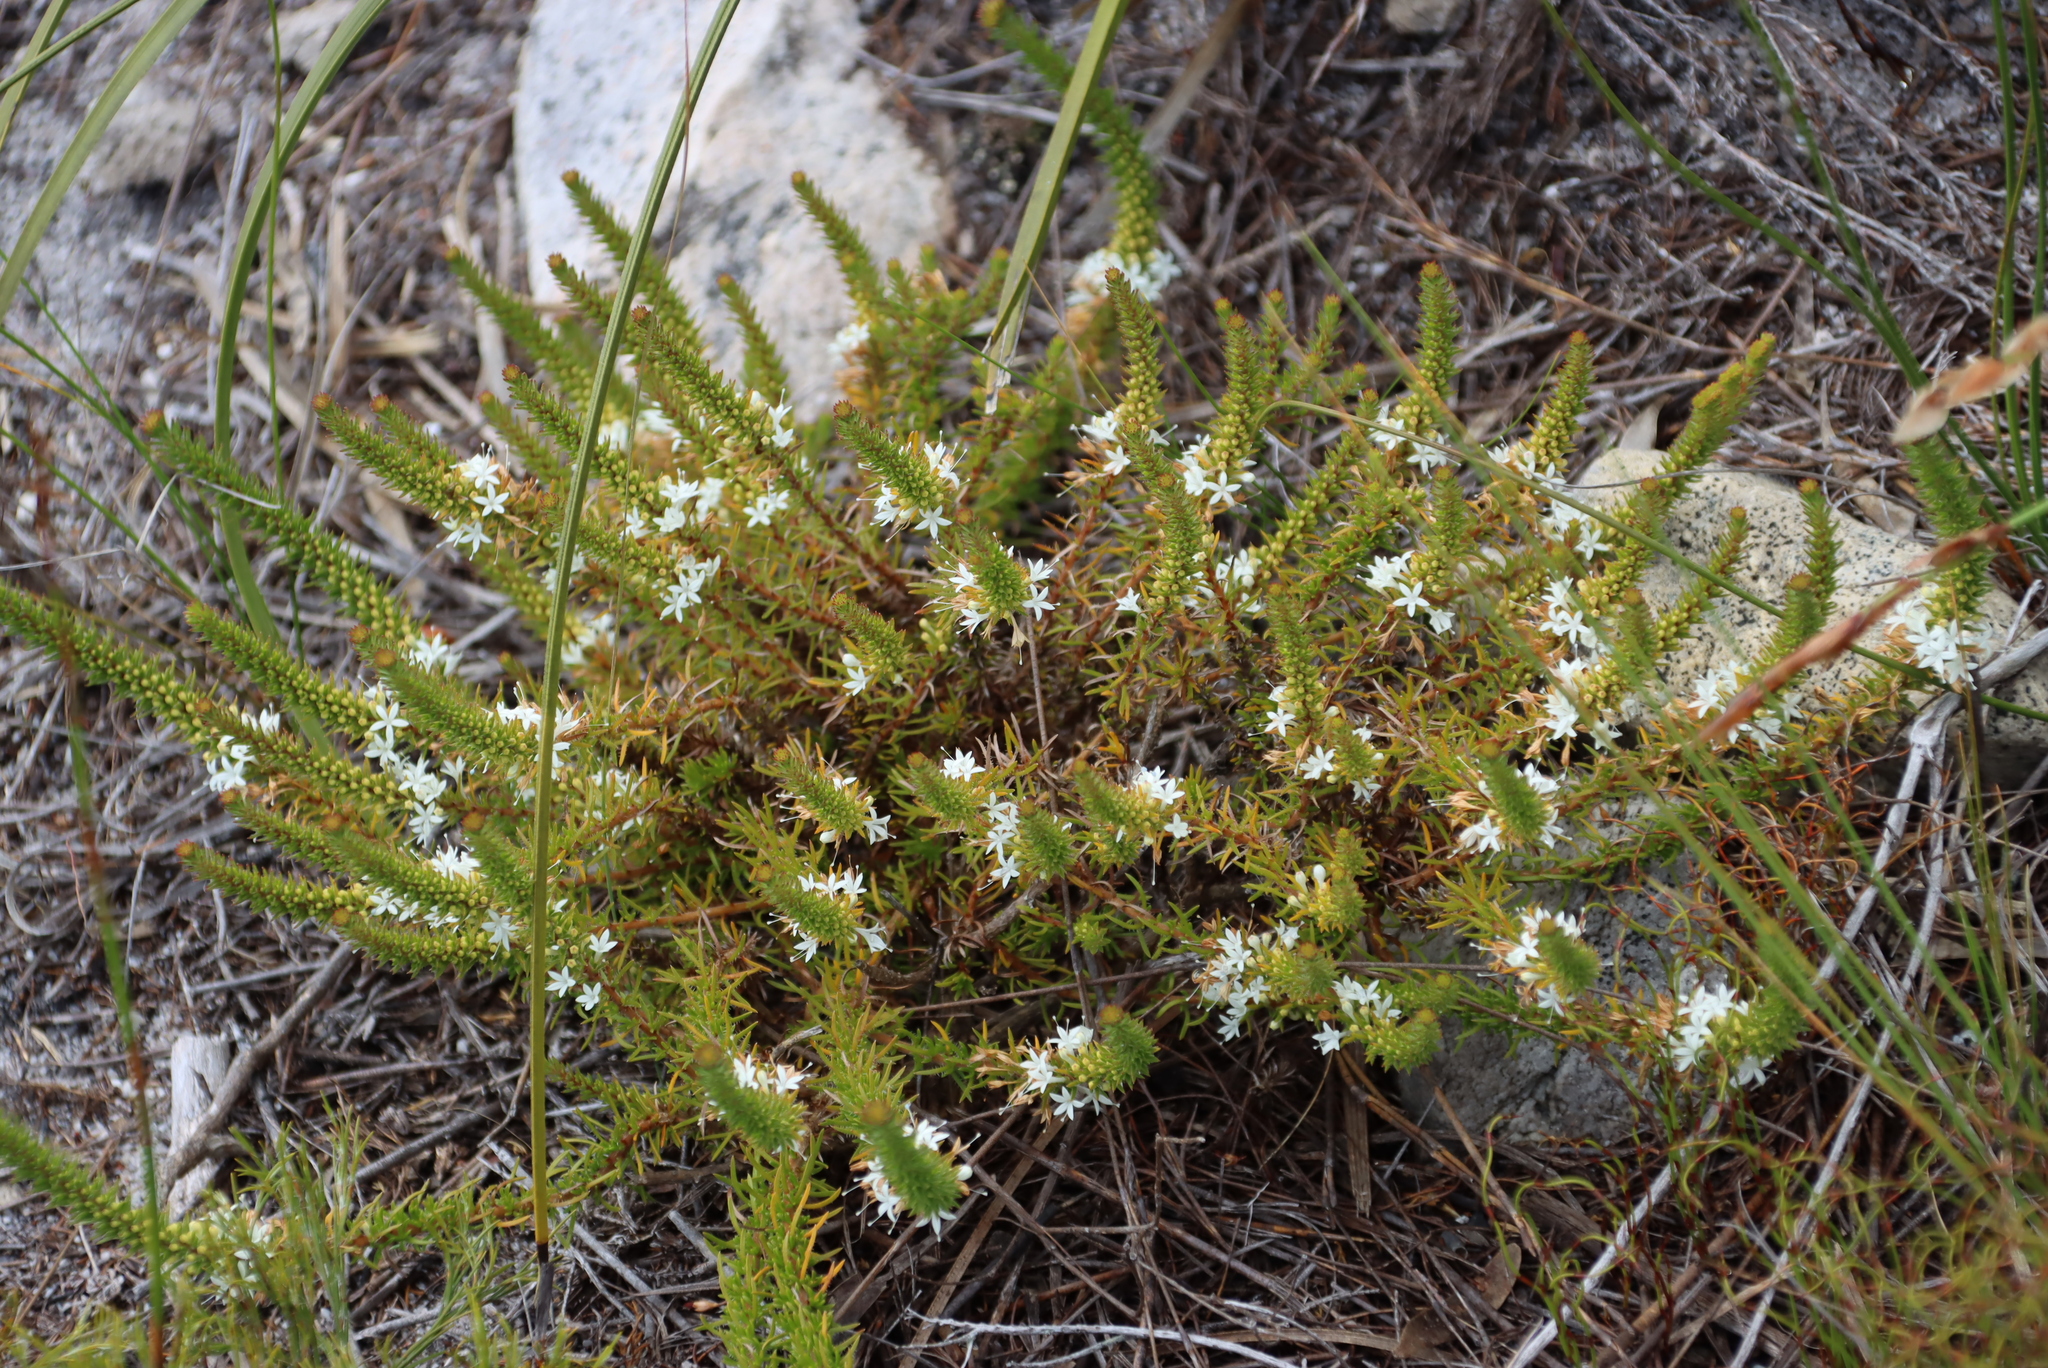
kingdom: Plantae
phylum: Tracheophyta
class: Magnoliopsida
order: Asterales
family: Campanulaceae
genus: Merciera
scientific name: Merciera leptoloba
